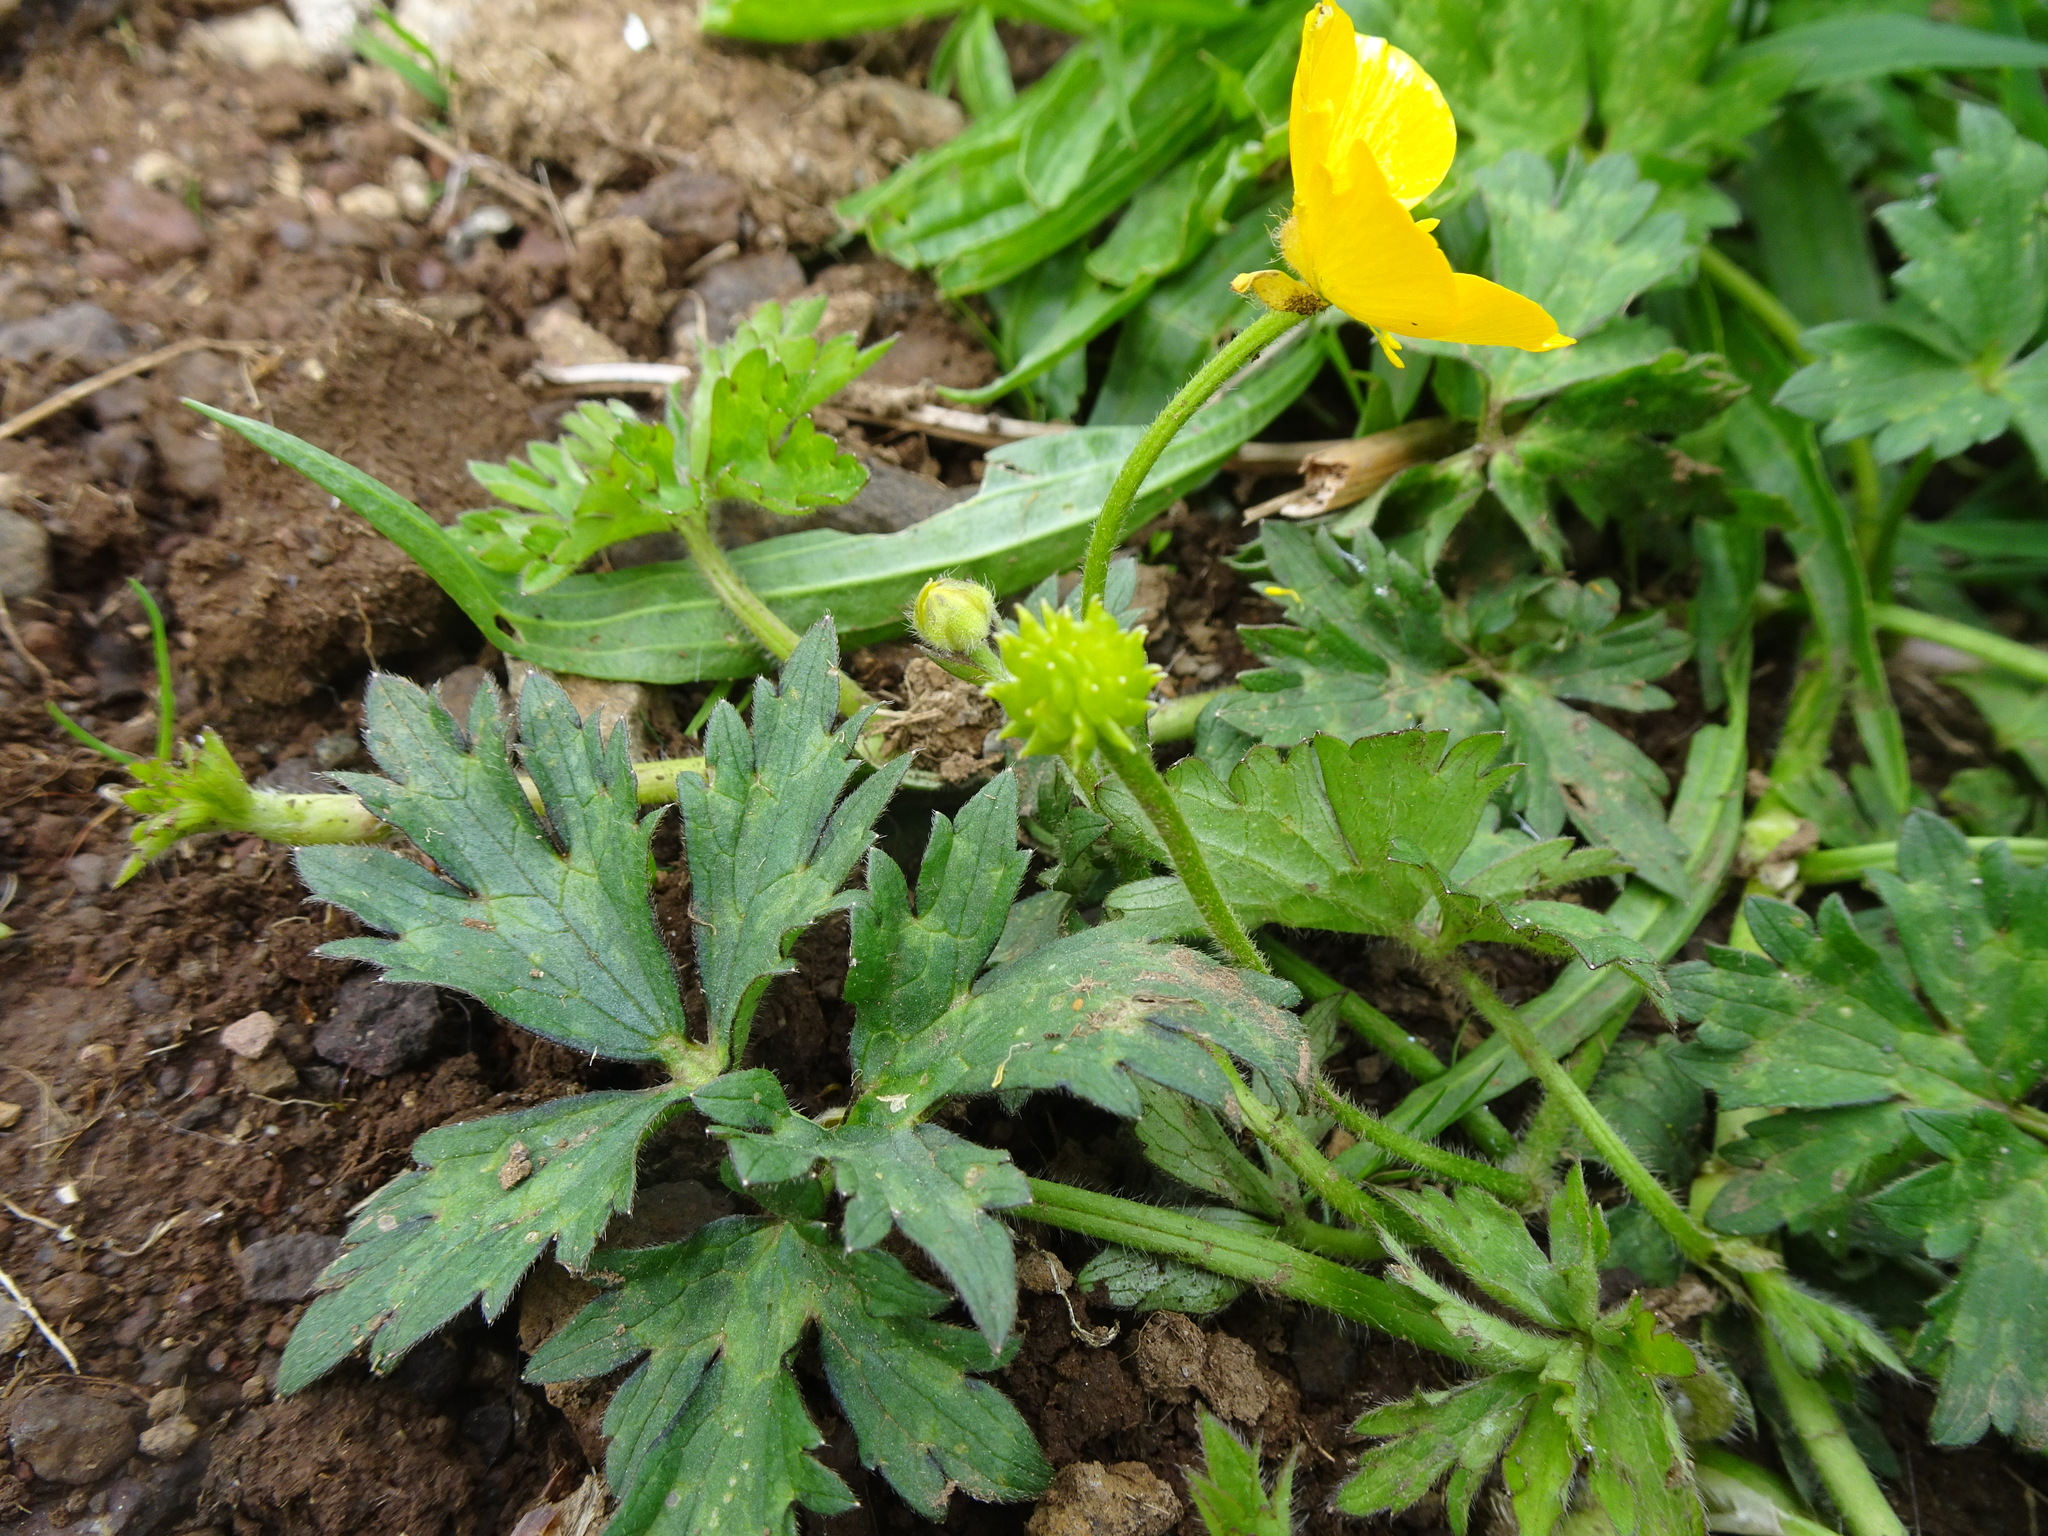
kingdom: Plantae
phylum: Tracheophyta
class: Magnoliopsida
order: Ranunculales
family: Ranunculaceae
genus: Ranunculus
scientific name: Ranunculus repens
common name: Creeping buttercup
